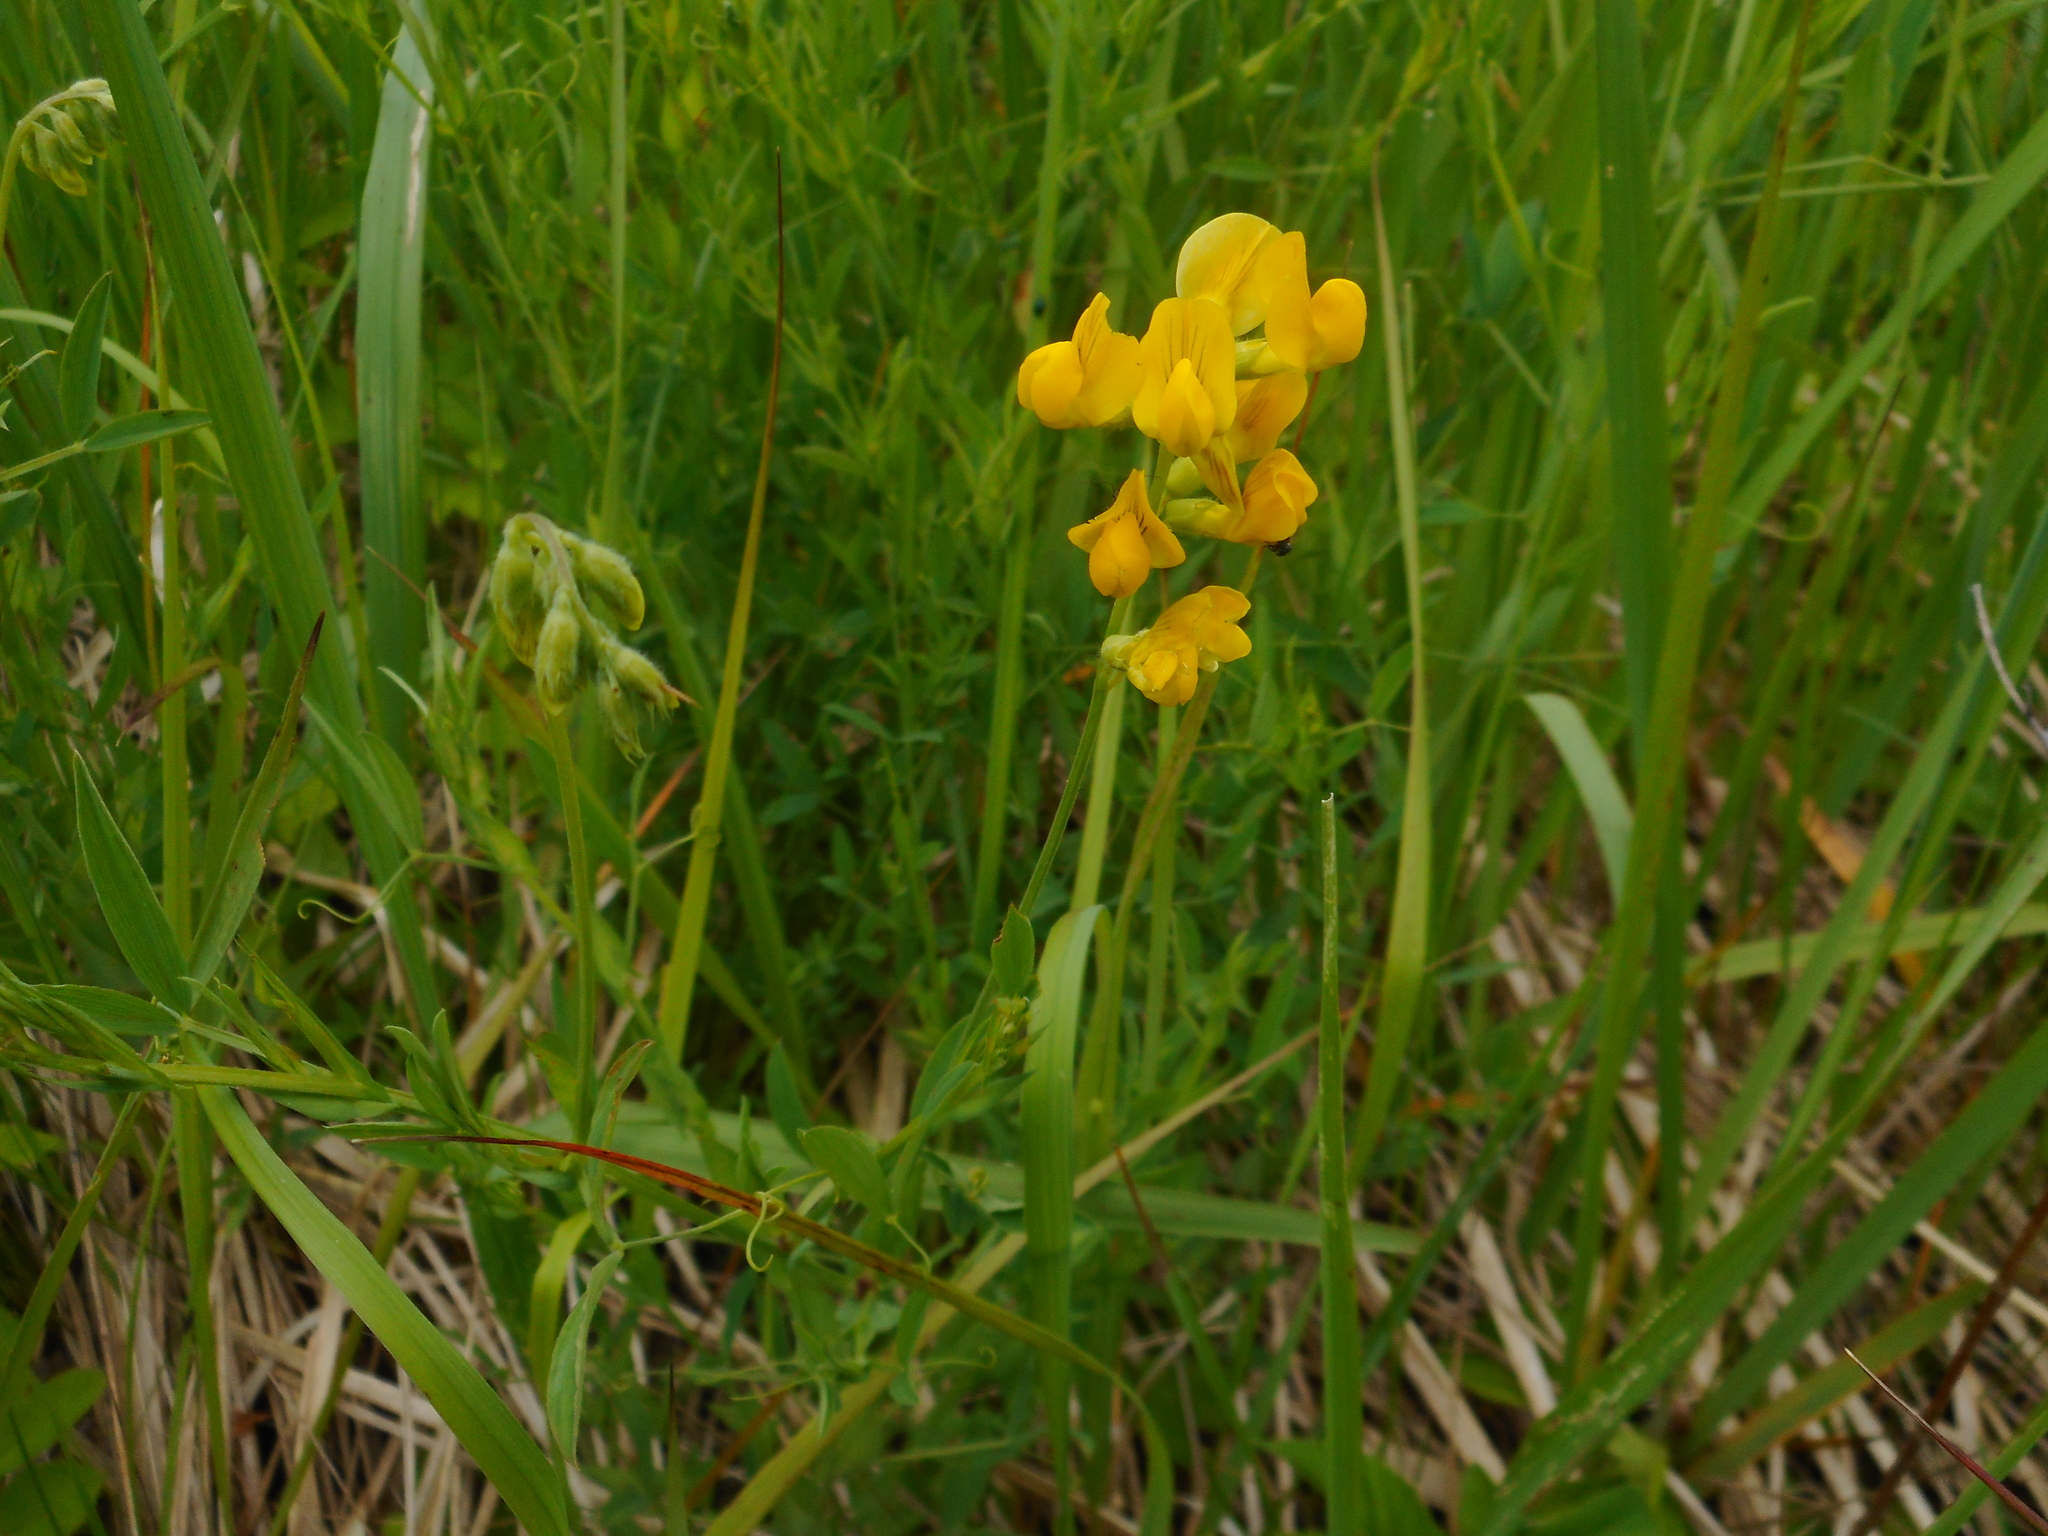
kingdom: Plantae
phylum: Tracheophyta
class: Magnoliopsida
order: Fabales
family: Fabaceae
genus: Lathyrus
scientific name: Lathyrus pratensis
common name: Meadow vetchling
